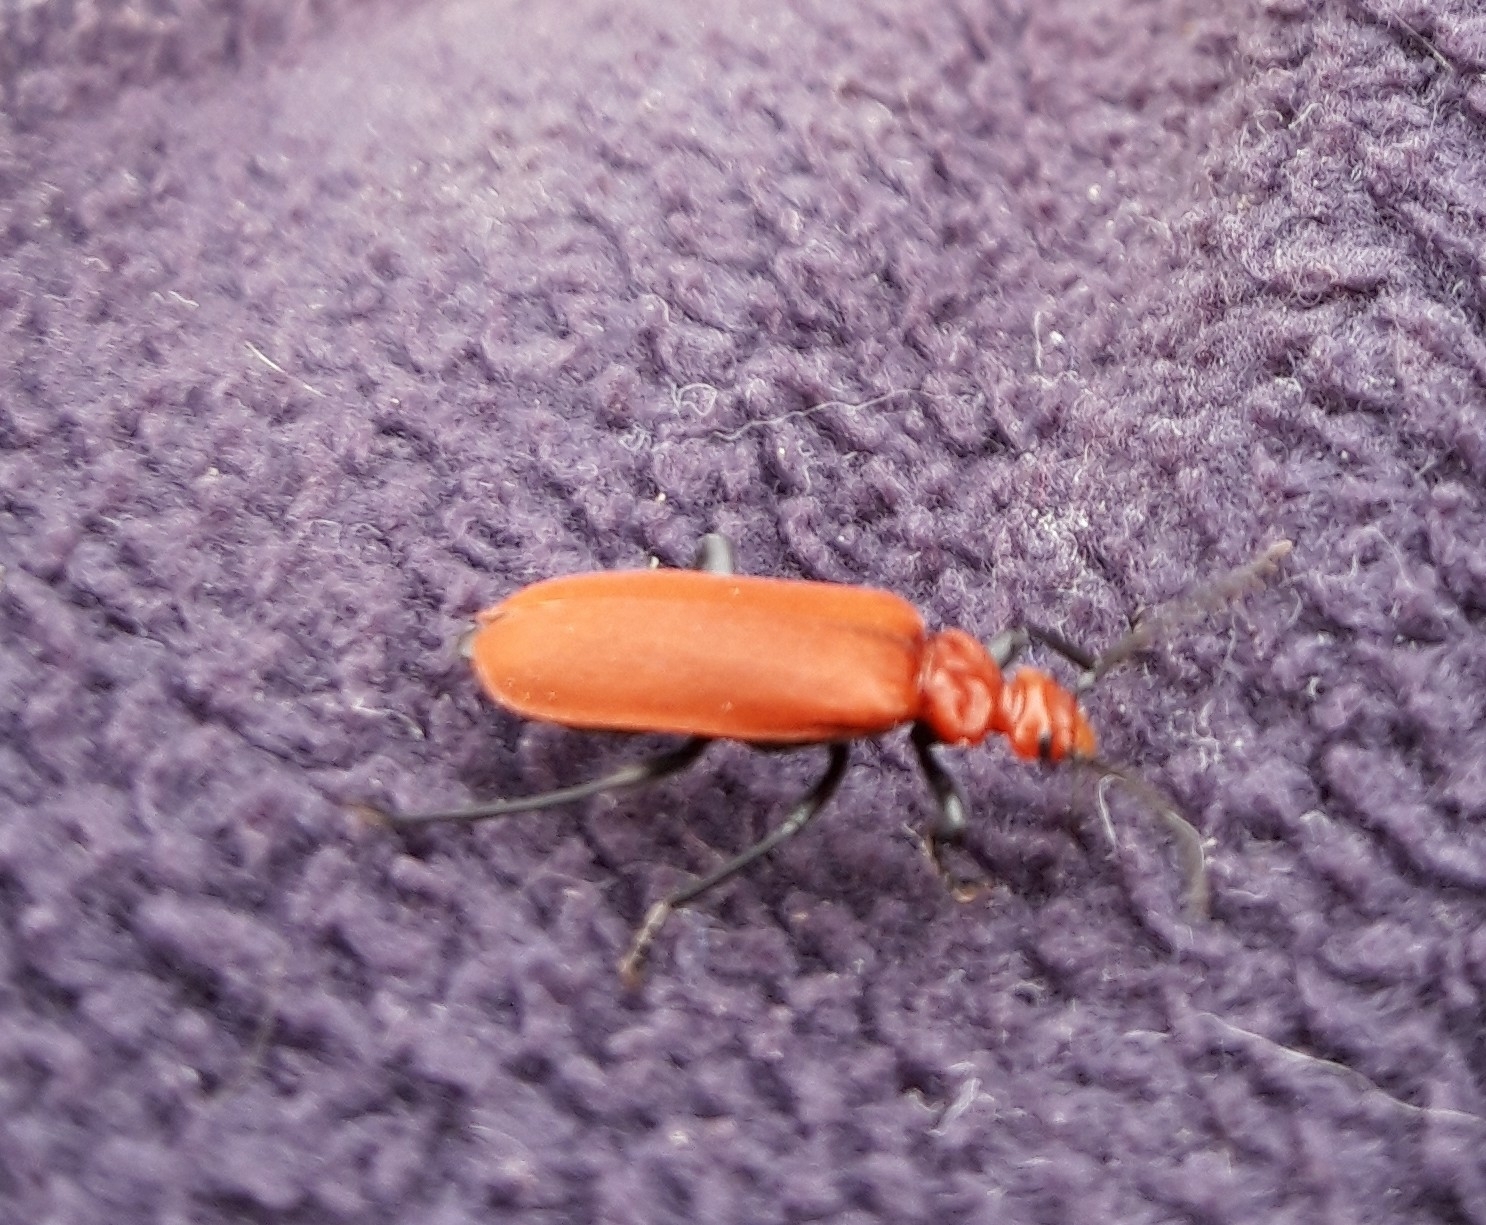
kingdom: Animalia
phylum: Arthropoda
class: Insecta
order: Coleoptera
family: Pyrochroidae
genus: Pyrochroa
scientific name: Pyrochroa serraticornis
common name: Red-headed cardinal beetle
